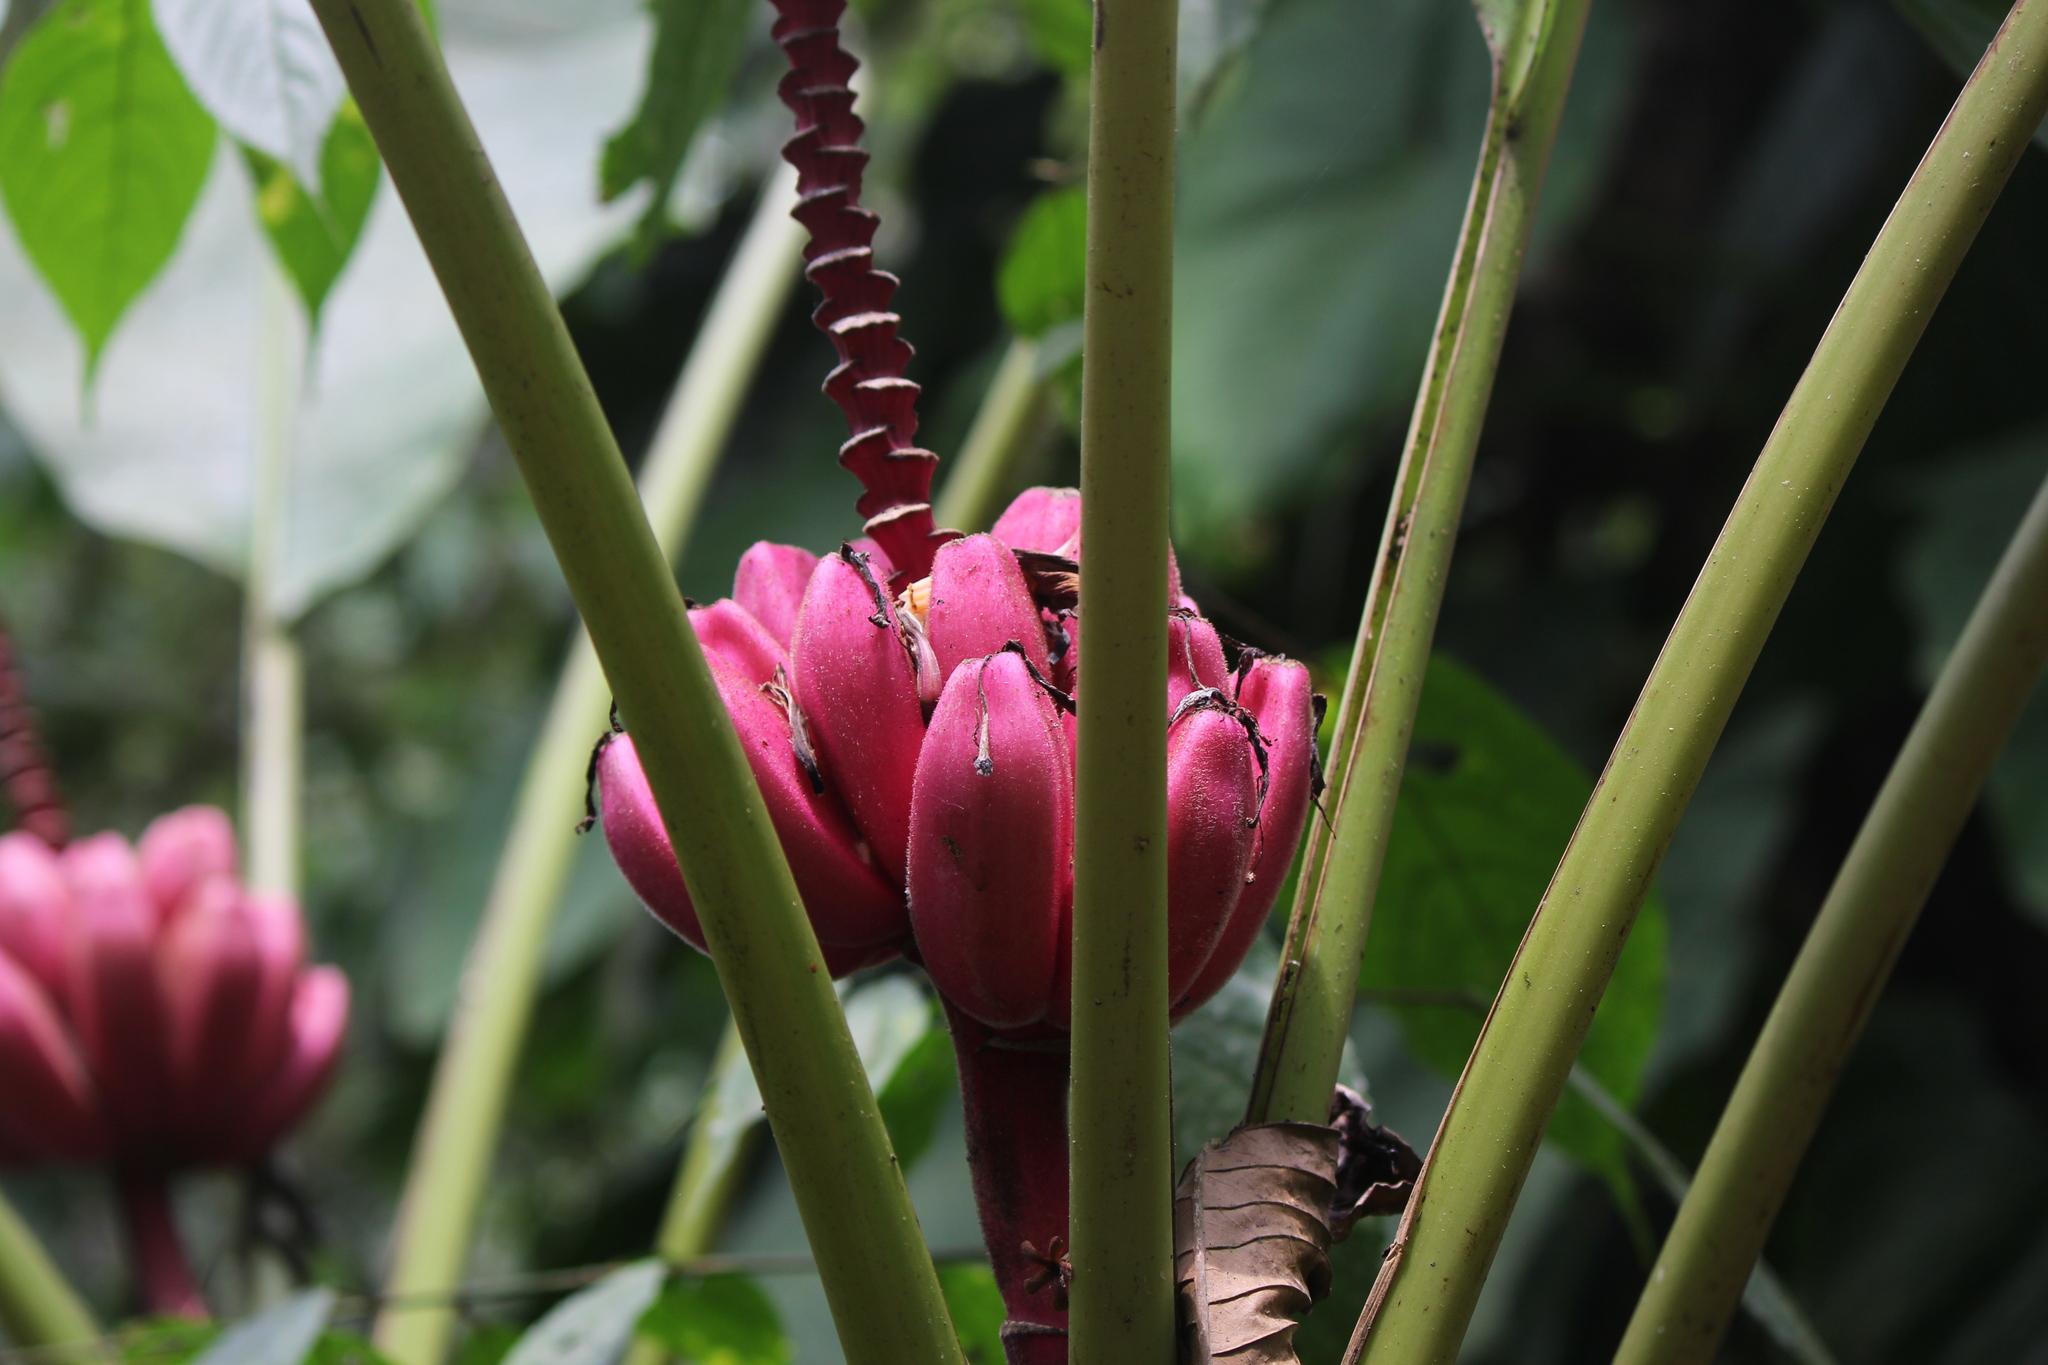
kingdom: Plantae
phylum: Tracheophyta
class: Liliopsida
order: Zingiberales
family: Musaceae
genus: Musa
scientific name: Musa velutina
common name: Pink velvet banana
